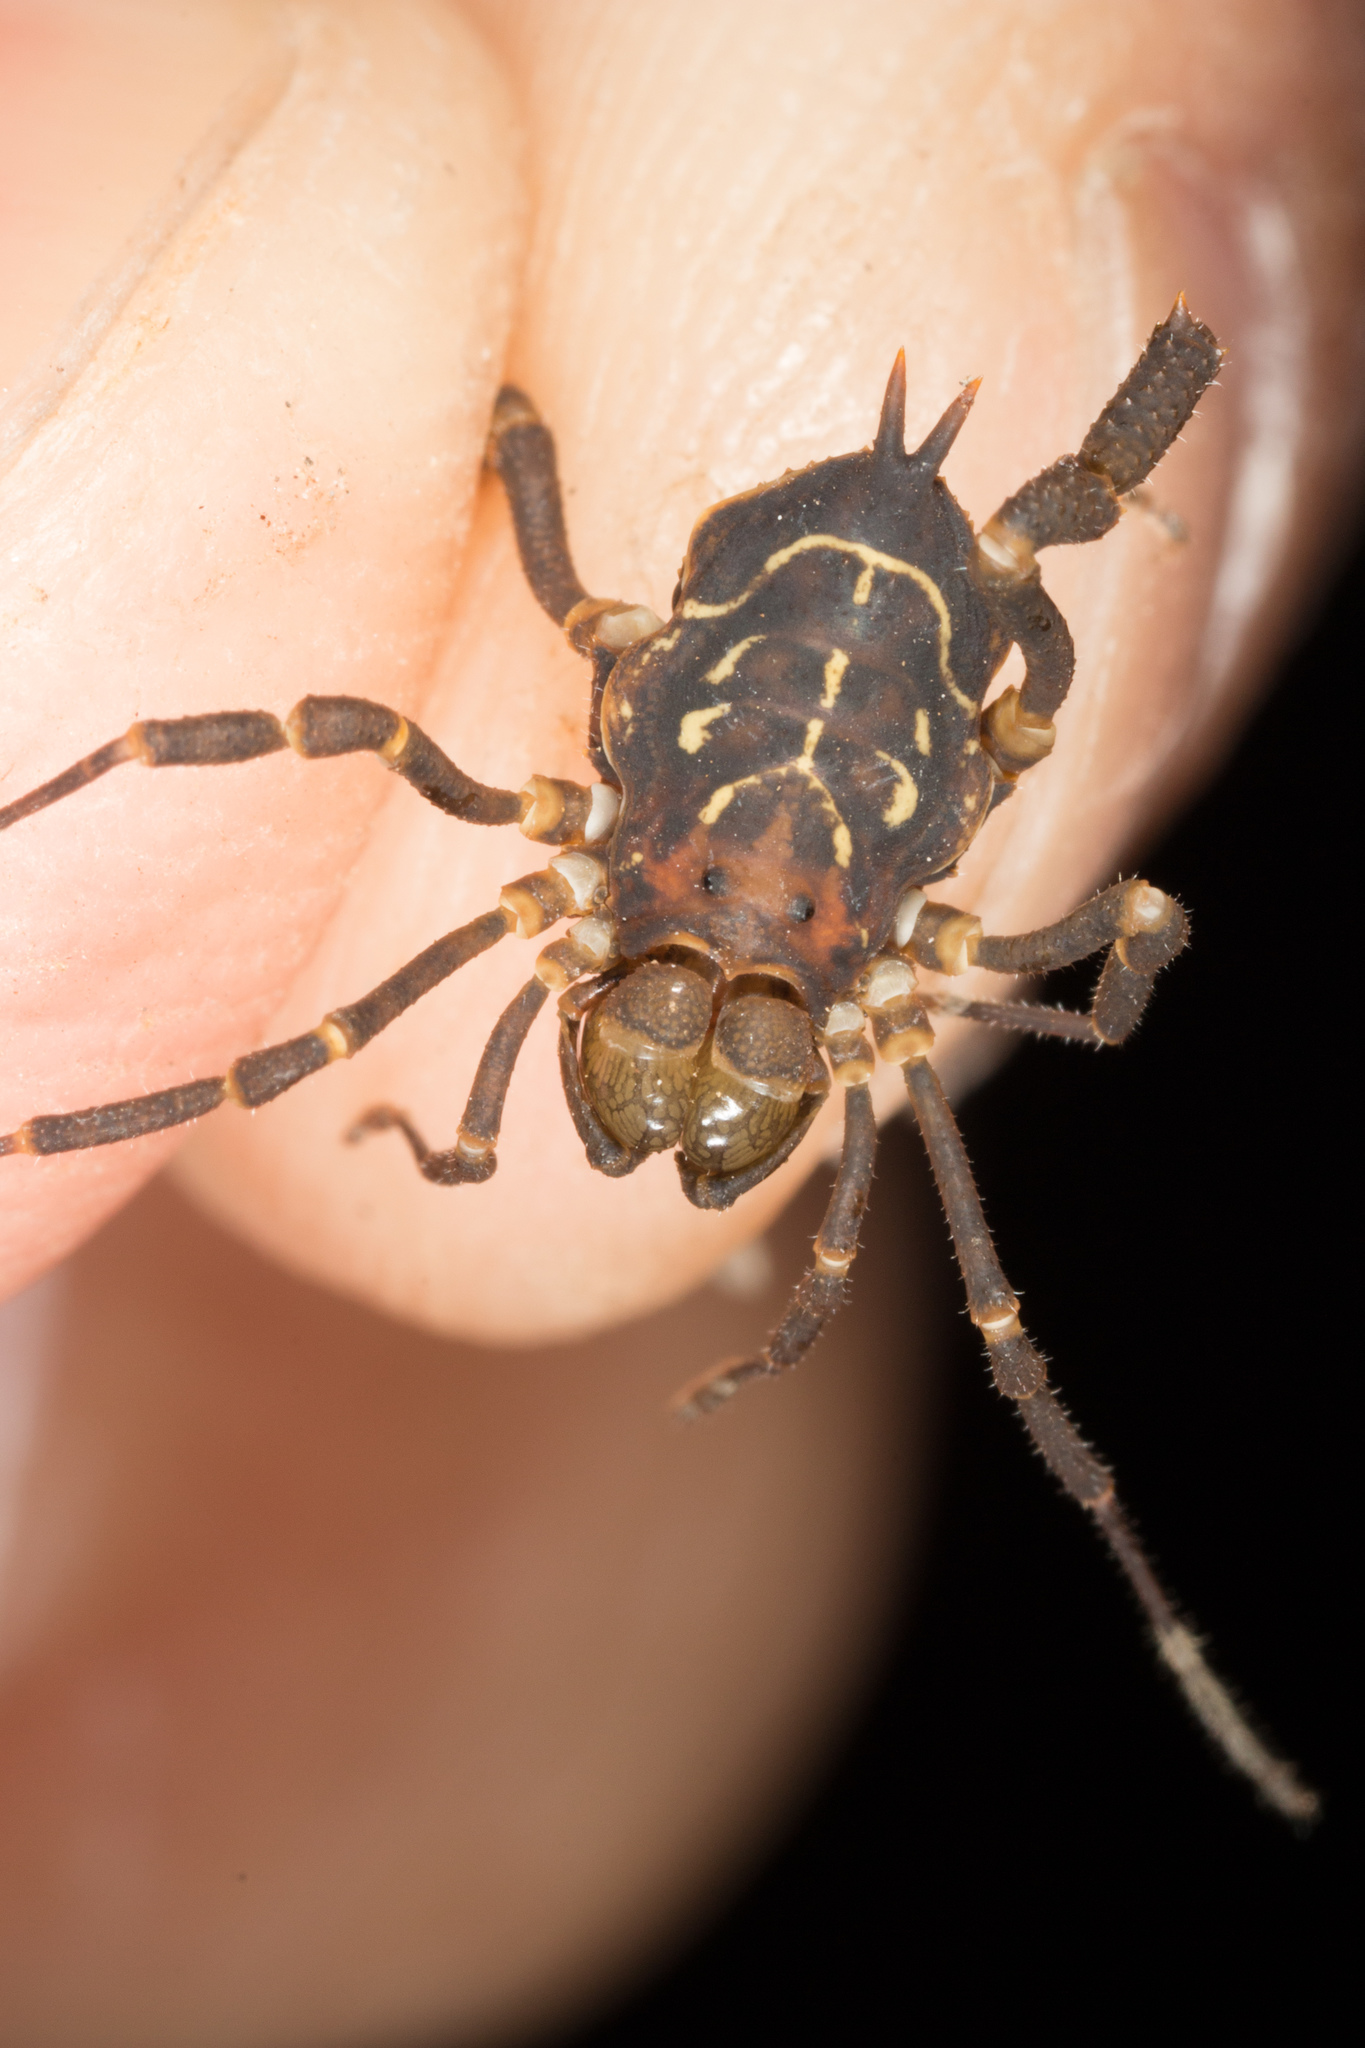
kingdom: Animalia
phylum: Arthropoda
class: Arachnida
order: Opiliones
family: Cosmetidae
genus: Arucillus
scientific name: Arucillus armasi
